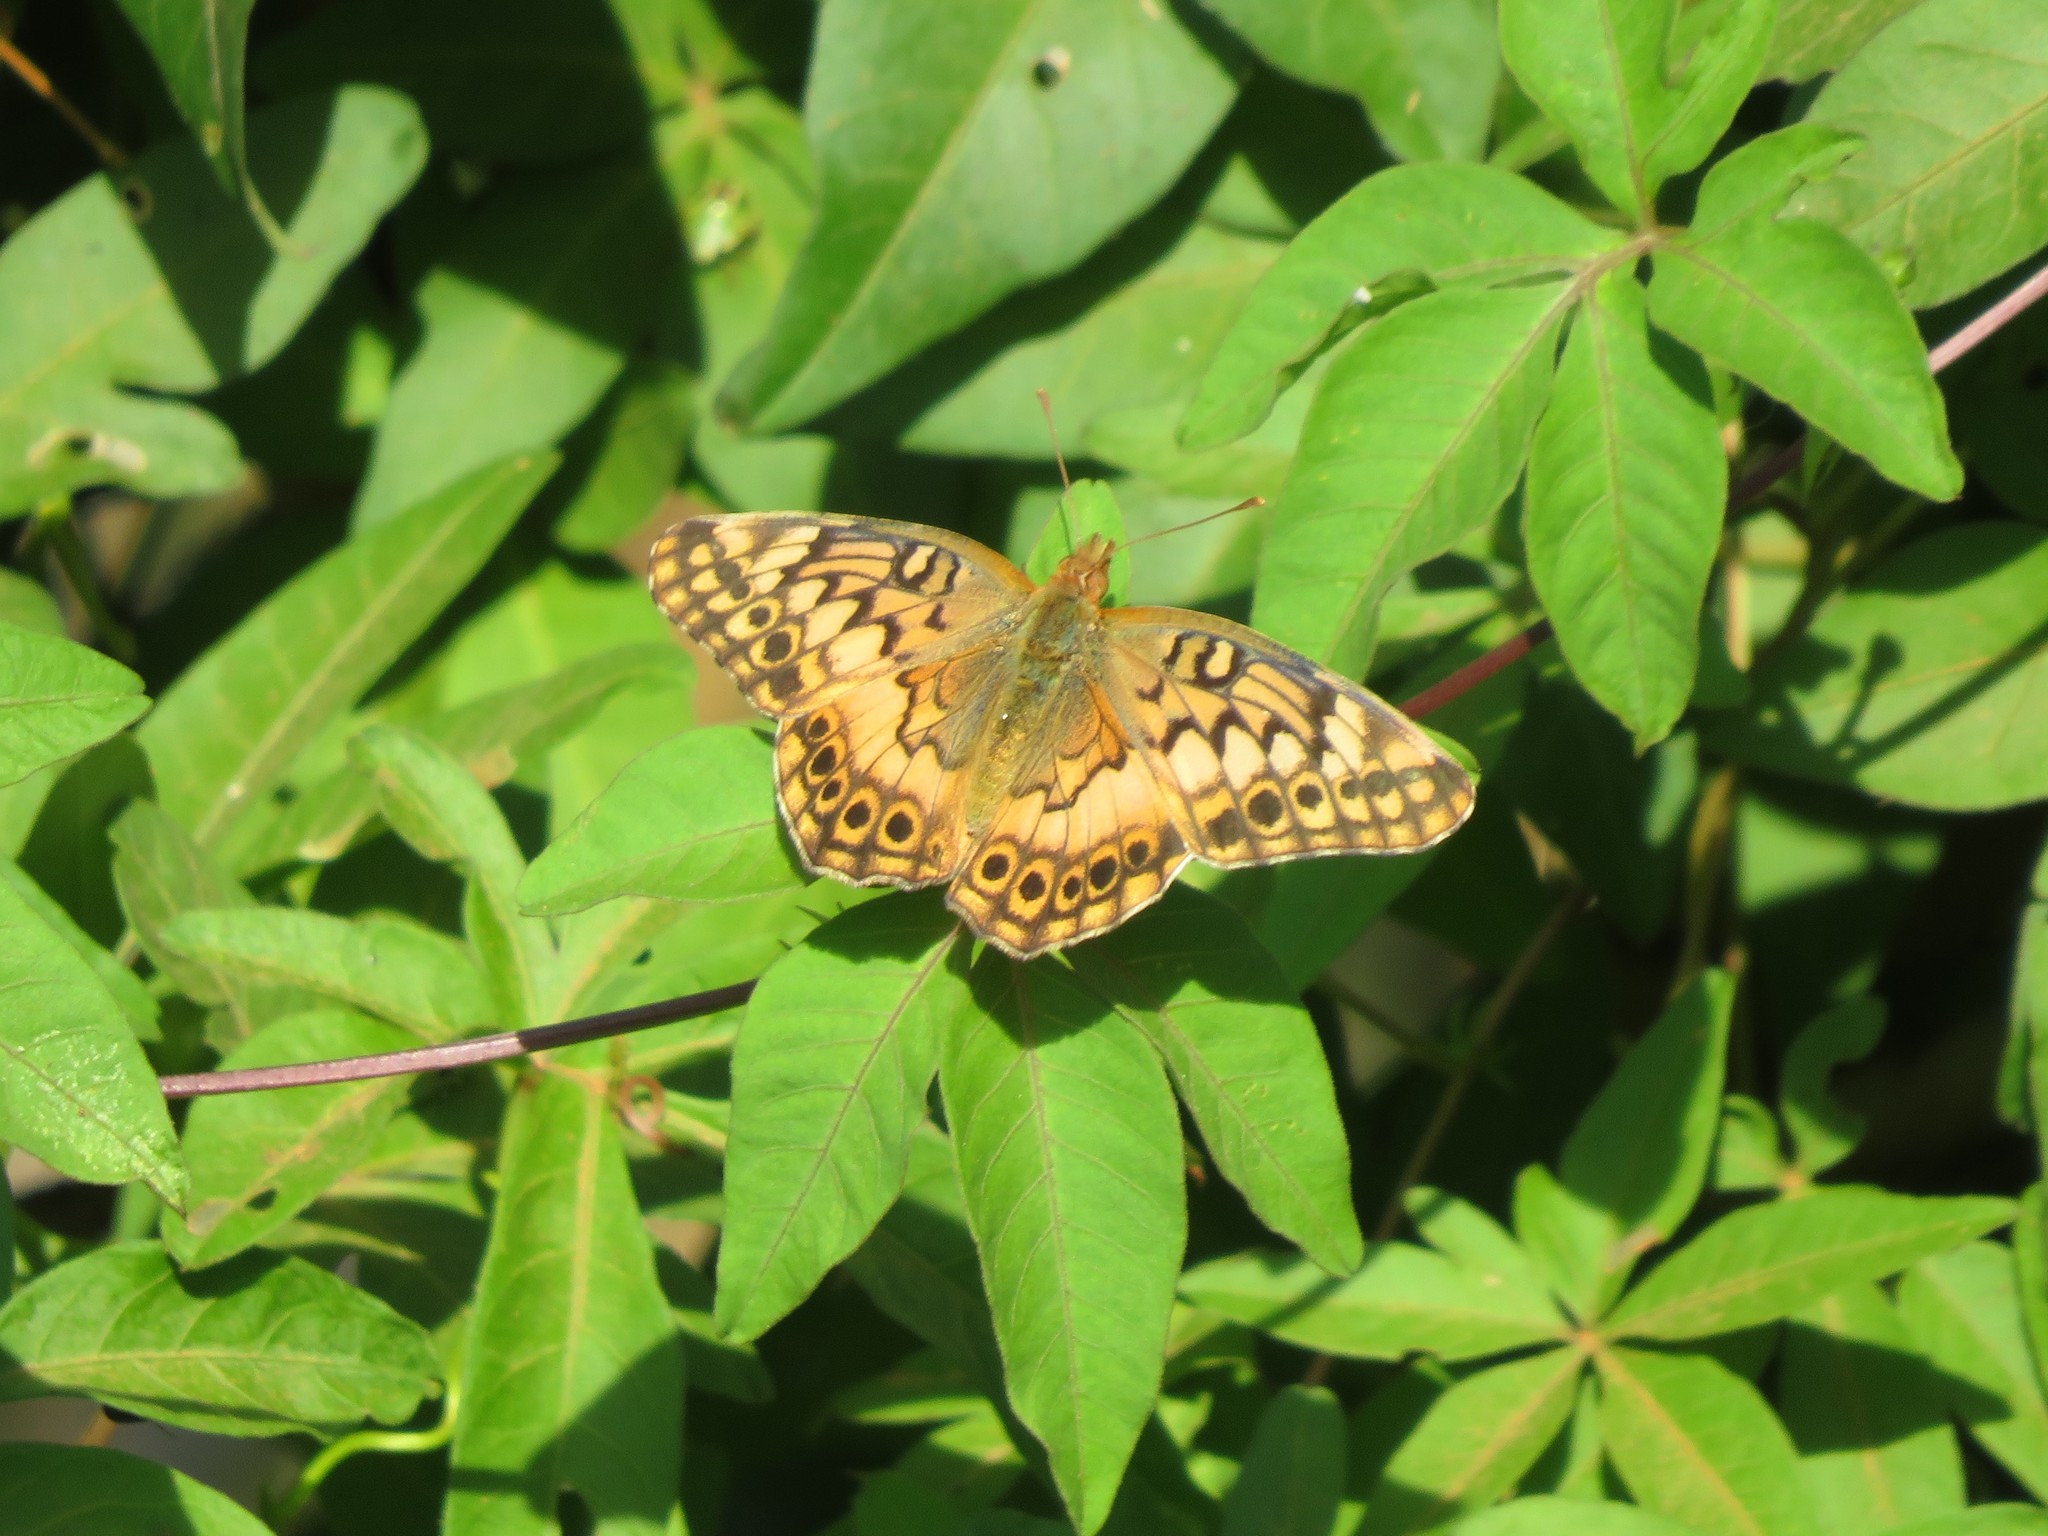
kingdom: Animalia
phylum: Arthropoda
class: Insecta
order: Lepidoptera
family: Nymphalidae
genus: Euptoieta
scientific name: Euptoieta hortensia
